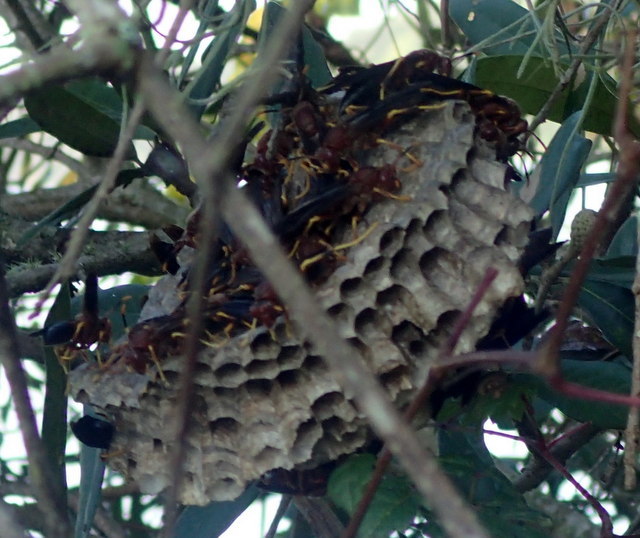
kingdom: Animalia
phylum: Arthropoda
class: Insecta
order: Hymenoptera
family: Eumenidae
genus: Polistes
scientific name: Polistes annularis
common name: Ringed paper wasp
